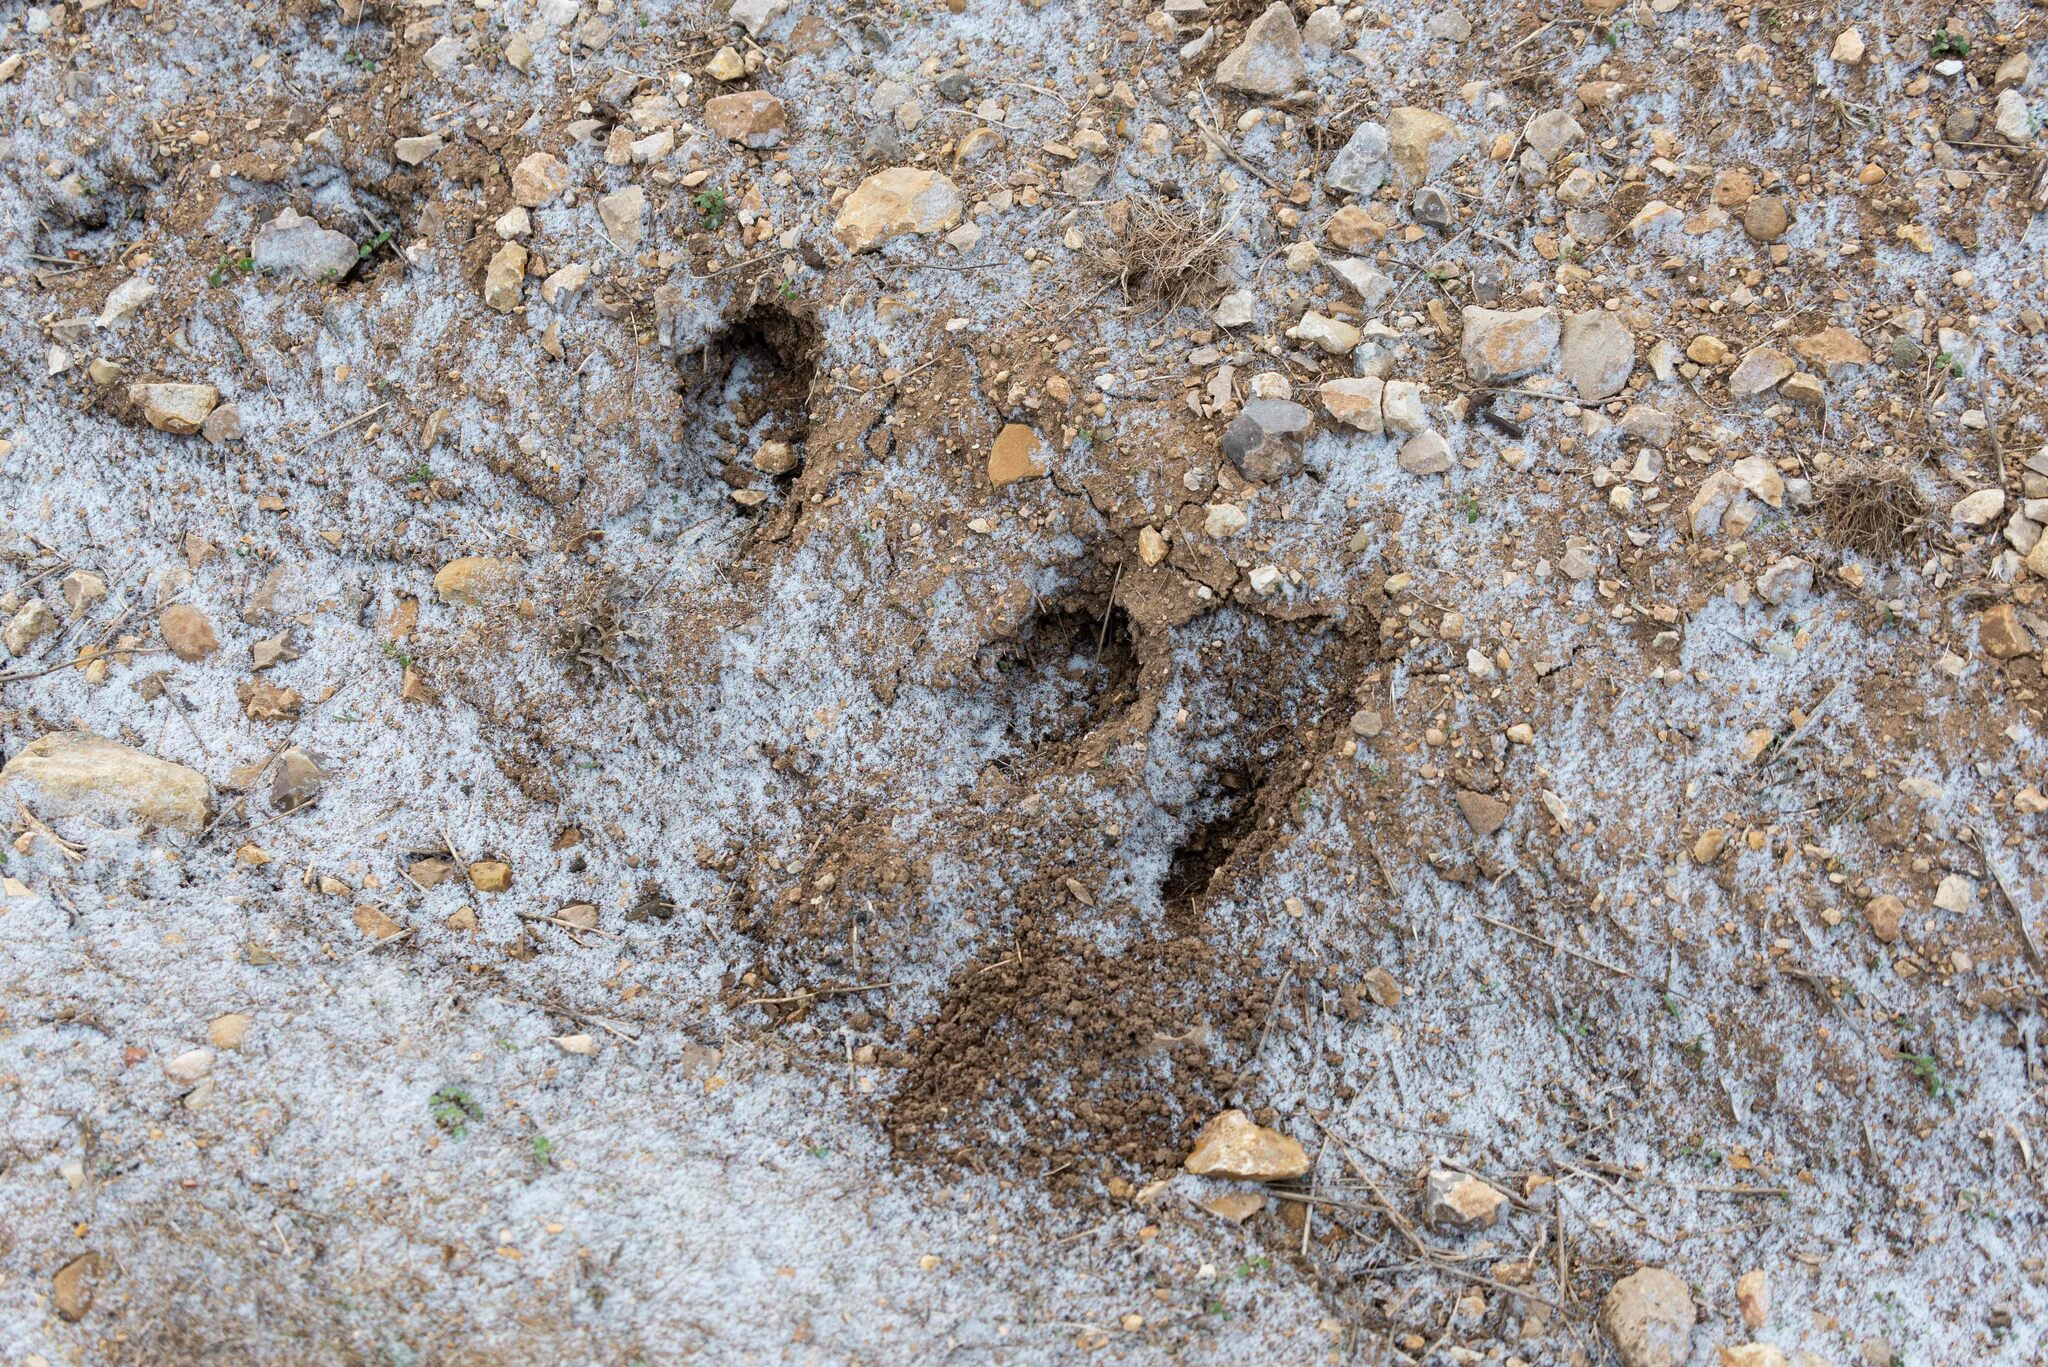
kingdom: Animalia
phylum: Chordata
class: Mammalia
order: Lagomorpha
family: Leporidae
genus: Oryctolagus
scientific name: Oryctolagus cuniculus
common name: European rabbit
